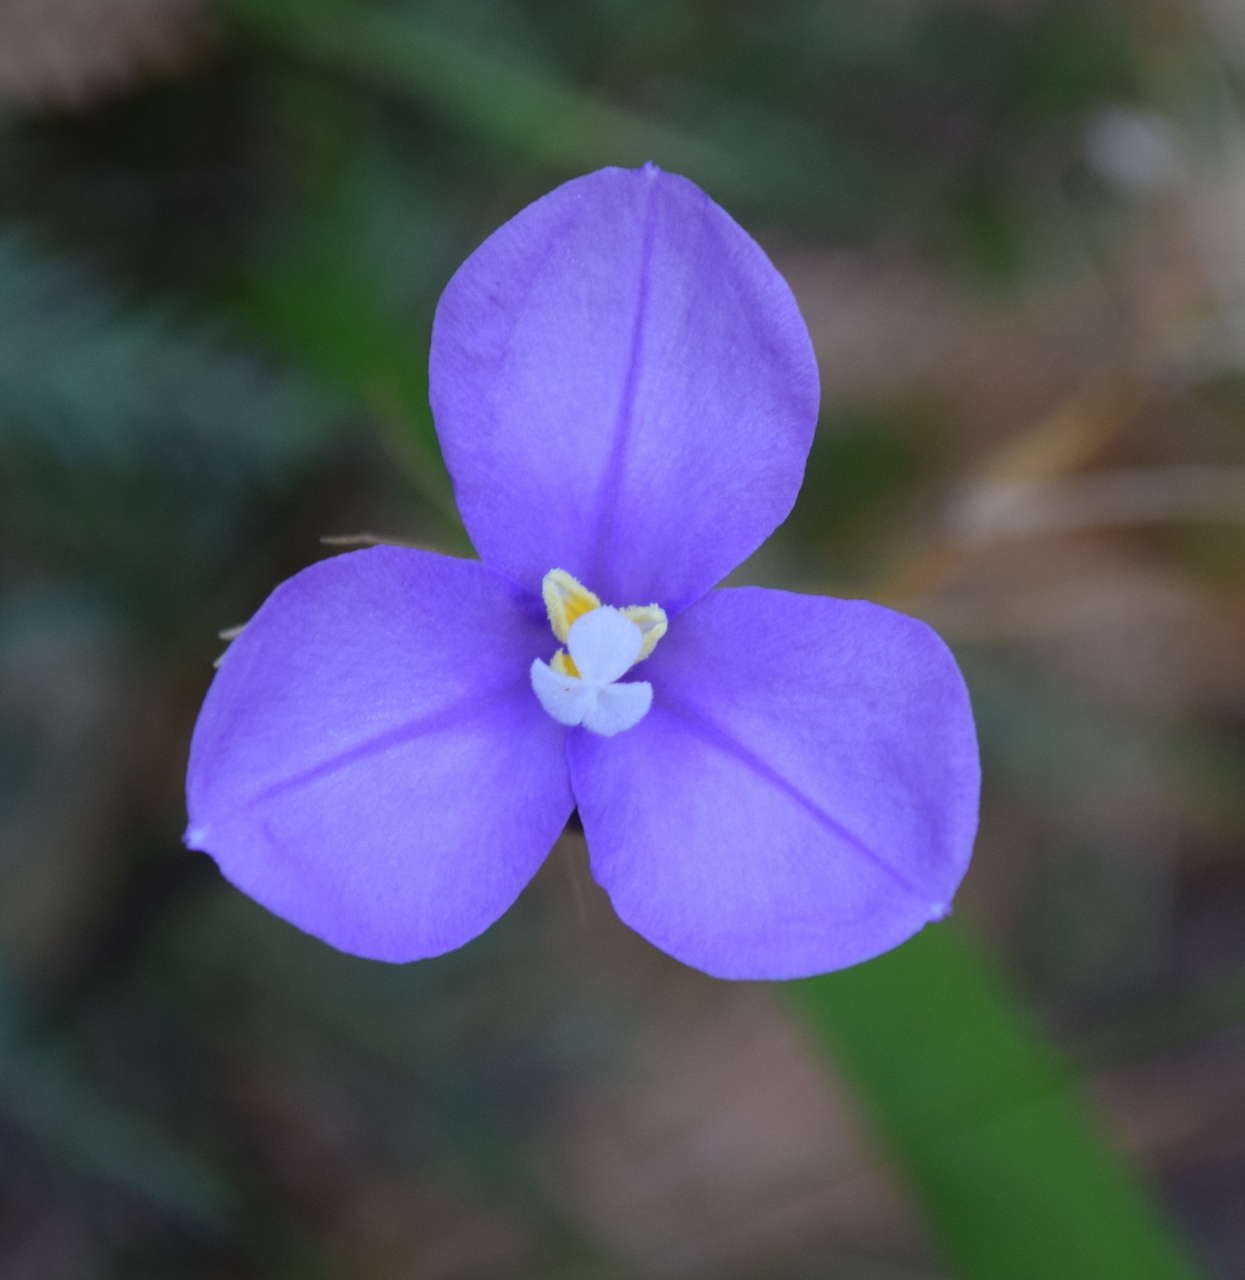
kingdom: Plantae
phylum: Tracheophyta
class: Liliopsida
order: Asparagales
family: Iridaceae
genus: Patersonia
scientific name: Patersonia occidentalis
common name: Long purple-flag
